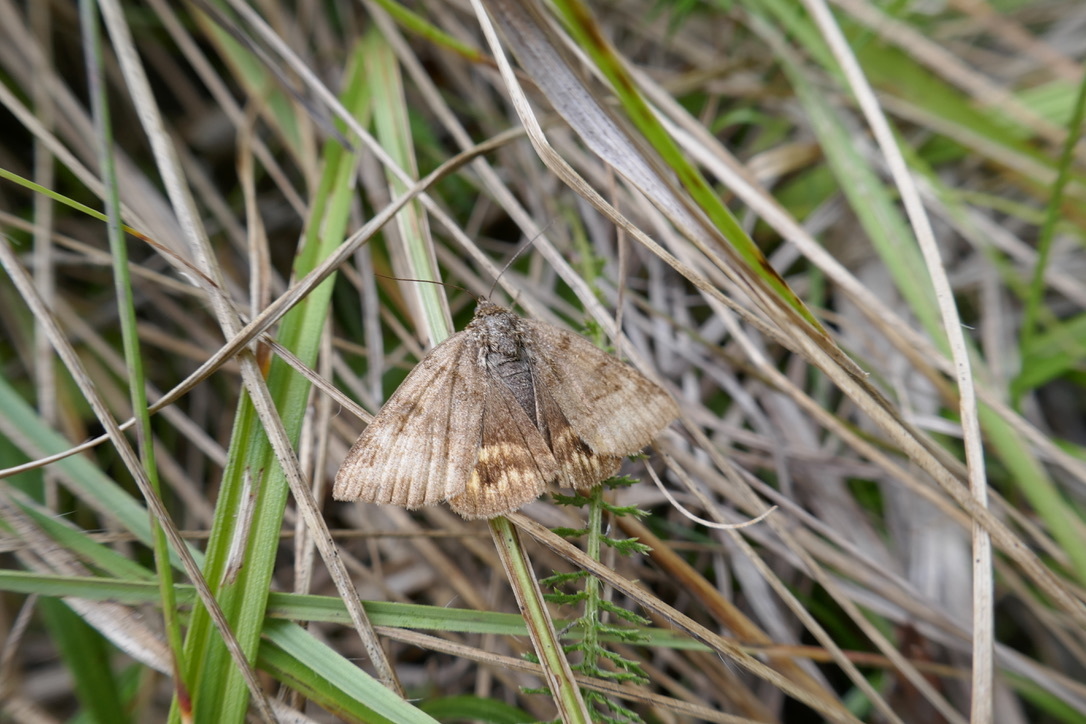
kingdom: Animalia
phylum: Arthropoda
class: Insecta
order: Lepidoptera
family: Erebidae
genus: Euclidia
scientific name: Euclidia glyphica
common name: Burnet companion
